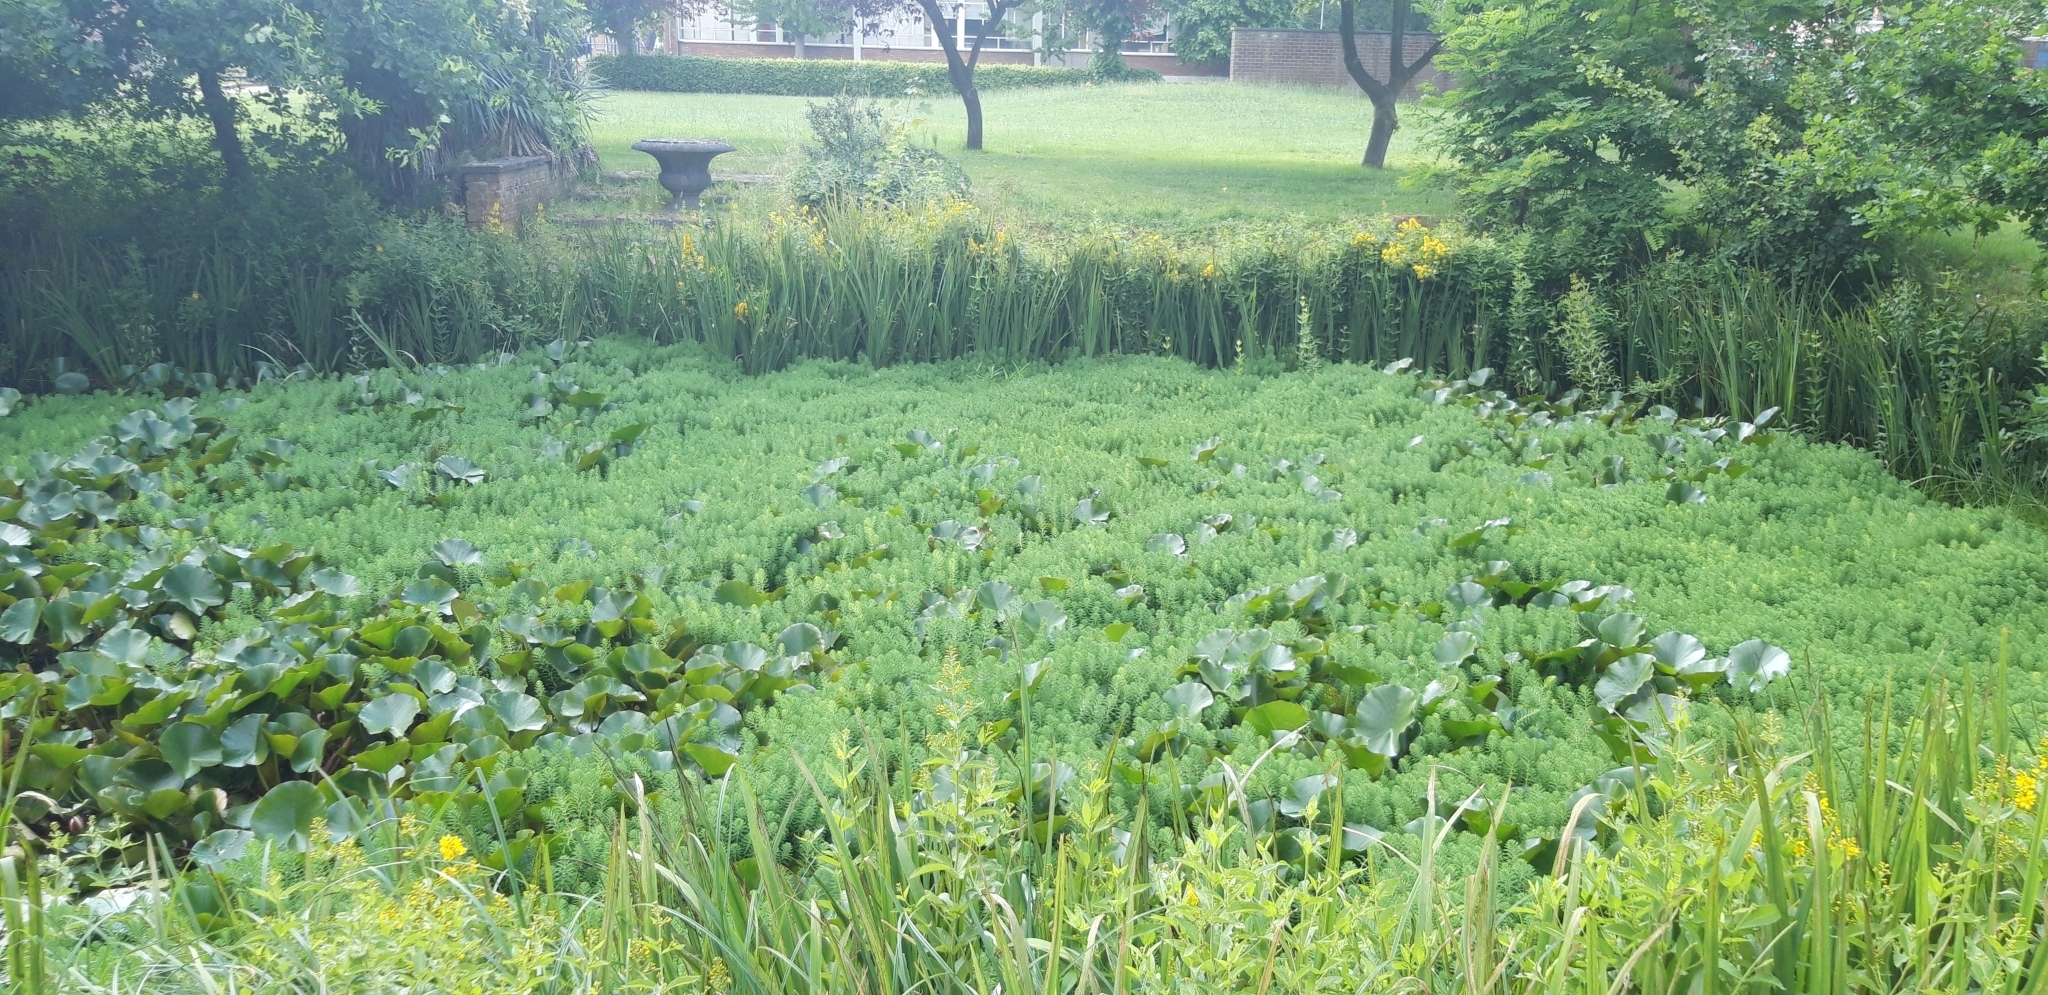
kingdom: Plantae
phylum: Tracheophyta
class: Magnoliopsida
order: Saxifragales
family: Haloragaceae
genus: Myriophyllum
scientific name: Myriophyllum aquaticum
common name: Parrot's feather
